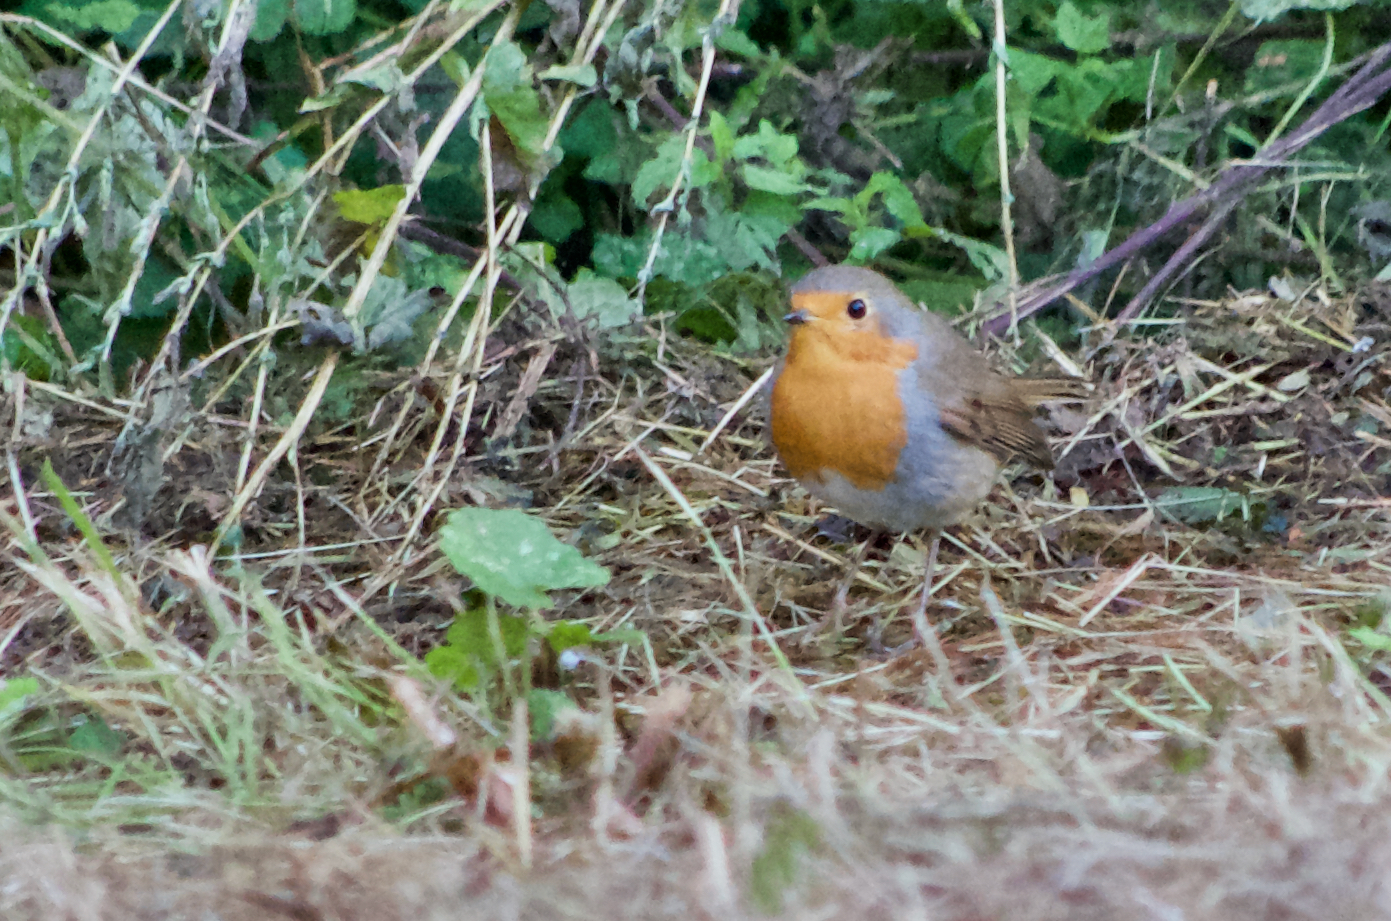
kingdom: Animalia
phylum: Chordata
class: Aves
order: Passeriformes
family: Muscicapidae
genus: Erithacus
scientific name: Erithacus rubecula
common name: European robin
